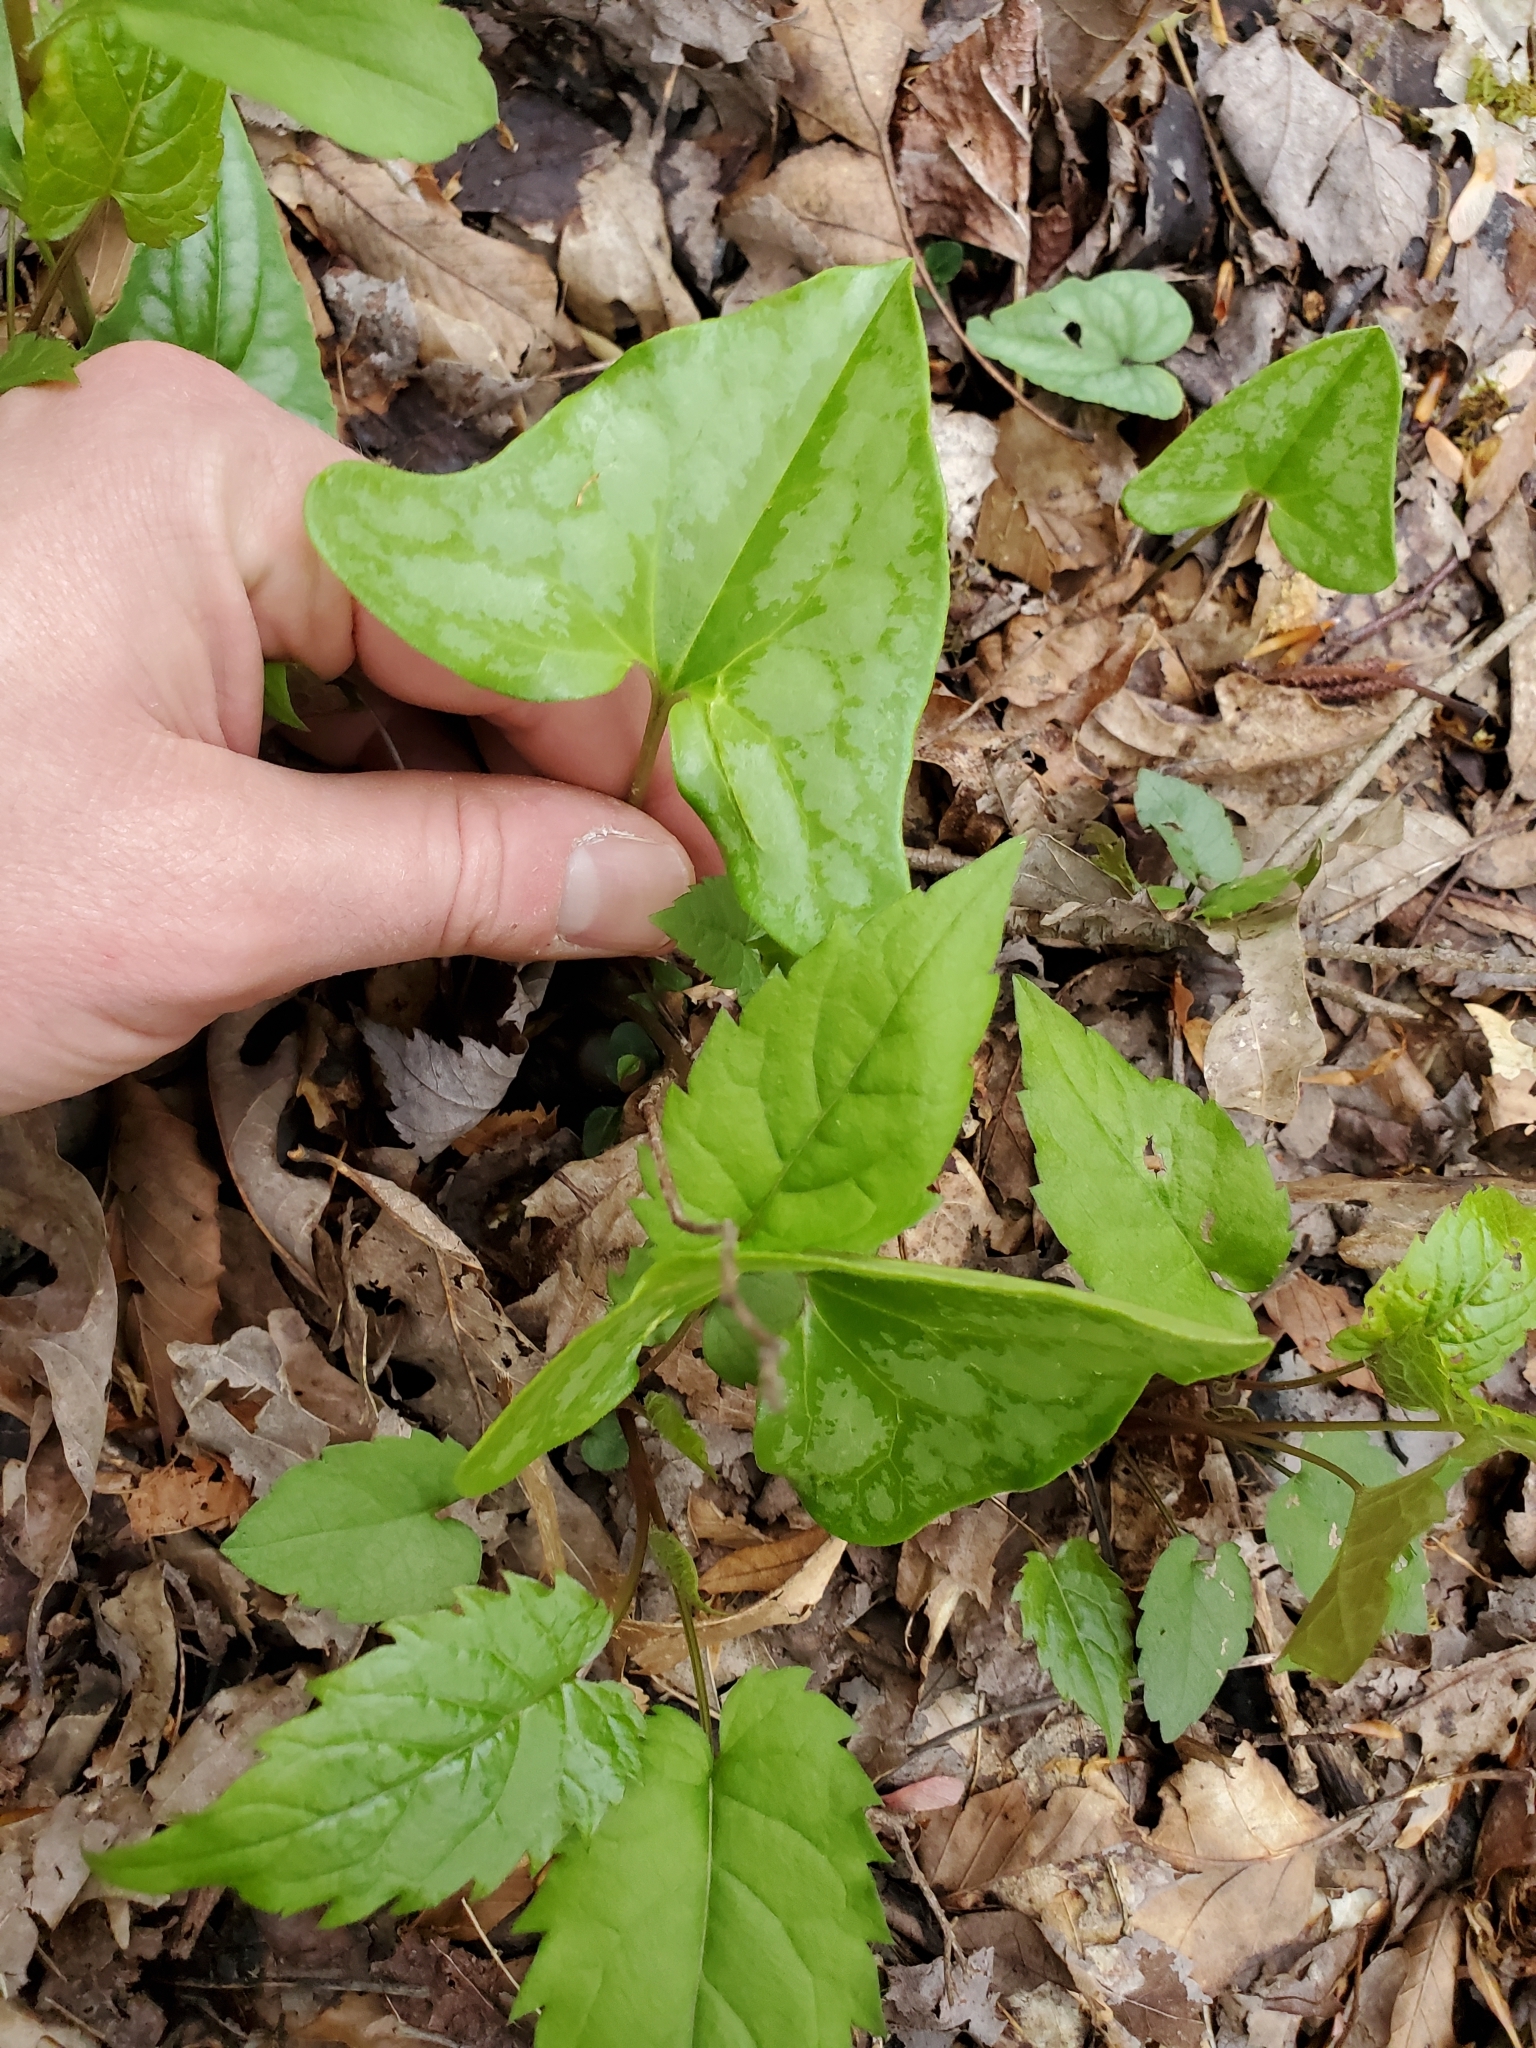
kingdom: Plantae
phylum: Tracheophyta
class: Magnoliopsida
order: Piperales
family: Aristolochiaceae
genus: Hexastylis
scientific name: Hexastylis arifolia
